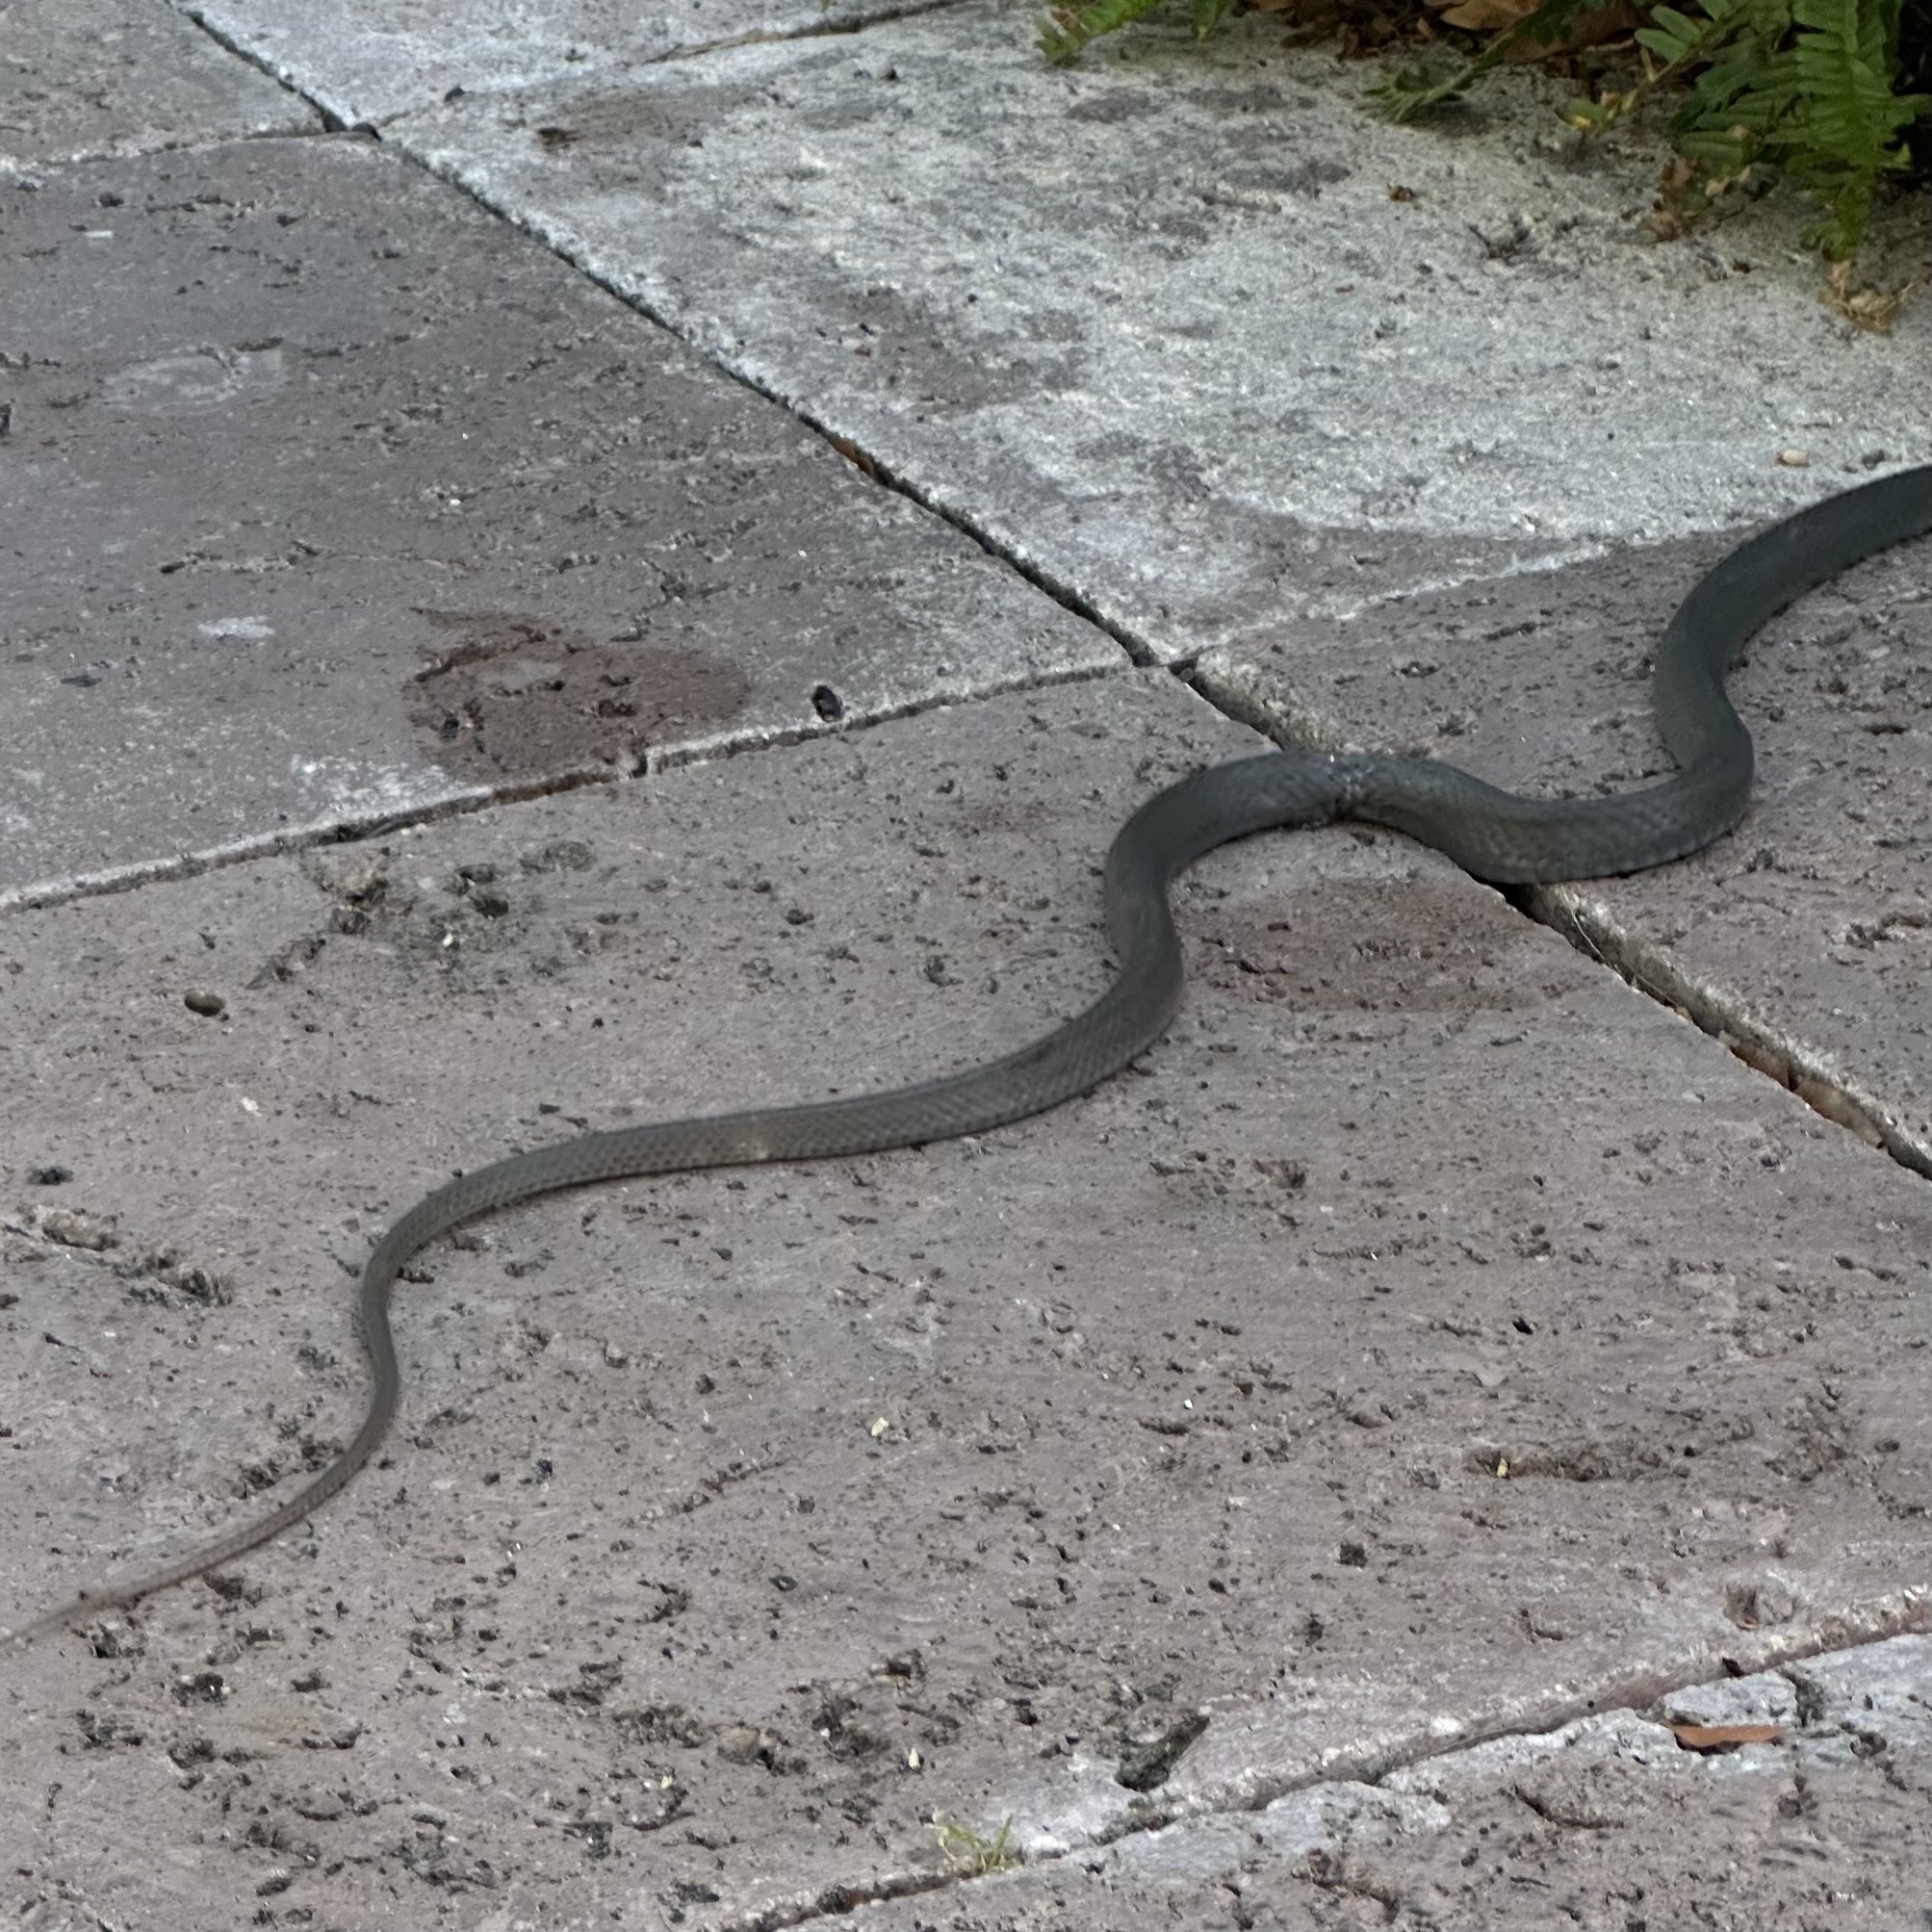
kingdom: Animalia
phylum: Chordata
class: Squamata
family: Colubridae
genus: Coluber
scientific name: Coluber constrictor
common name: Eastern racer
